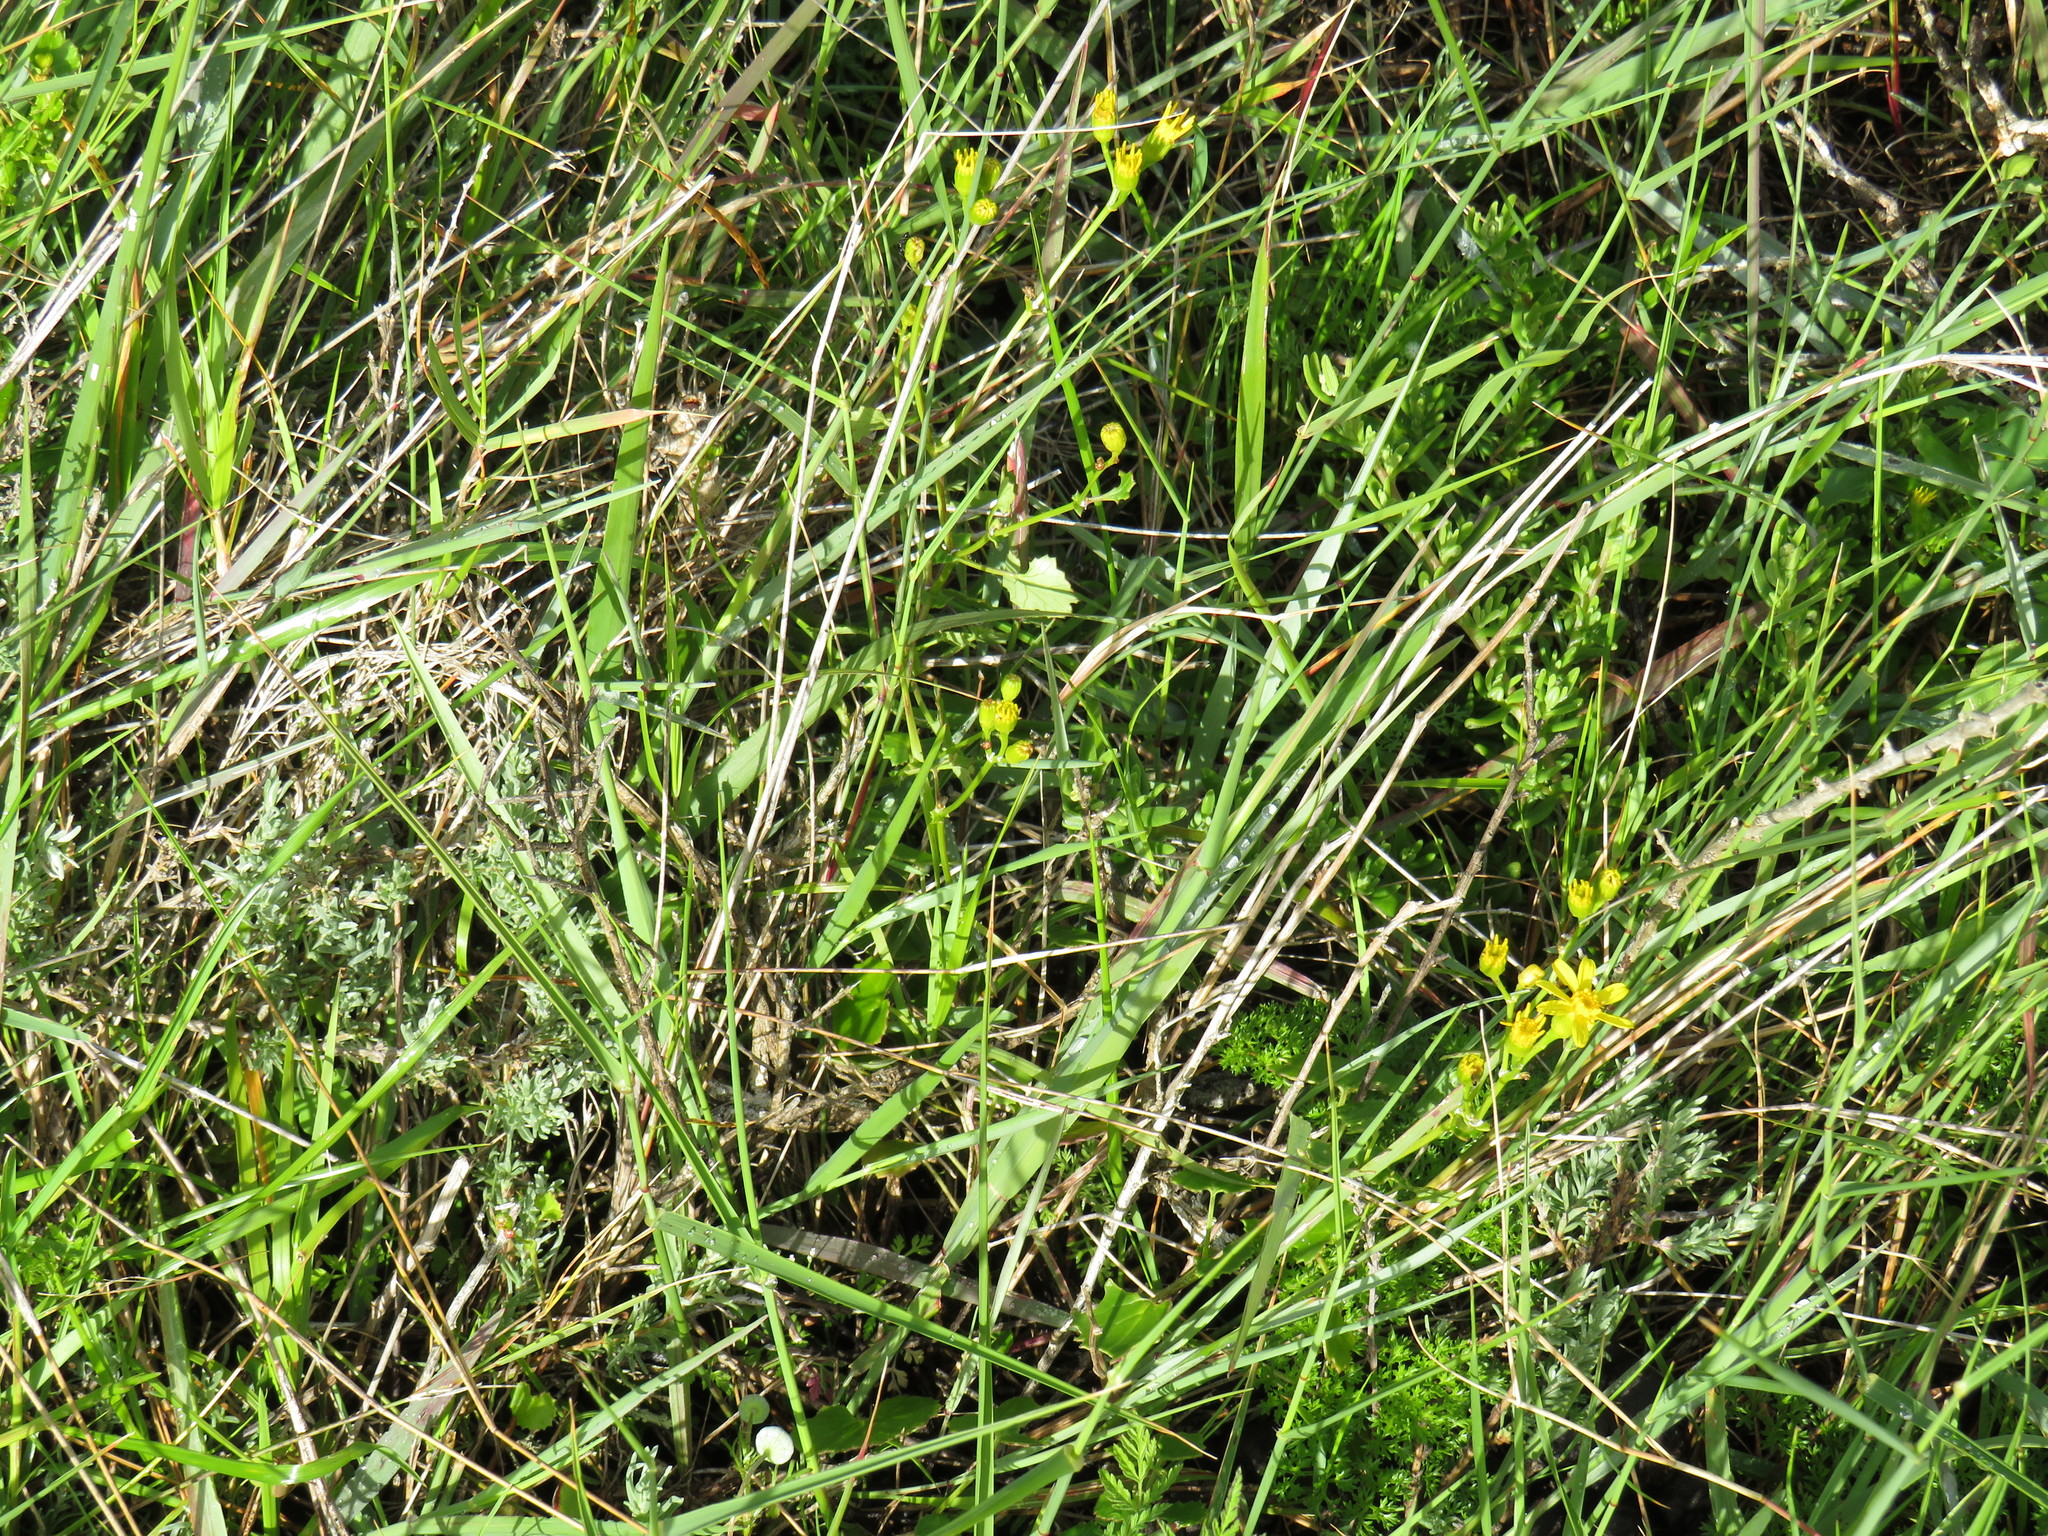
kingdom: Plantae
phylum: Tracheophyta
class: Magnoliopsida
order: Asterales
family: Asteraceae
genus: Cineraria
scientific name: Cineraria geifolia
